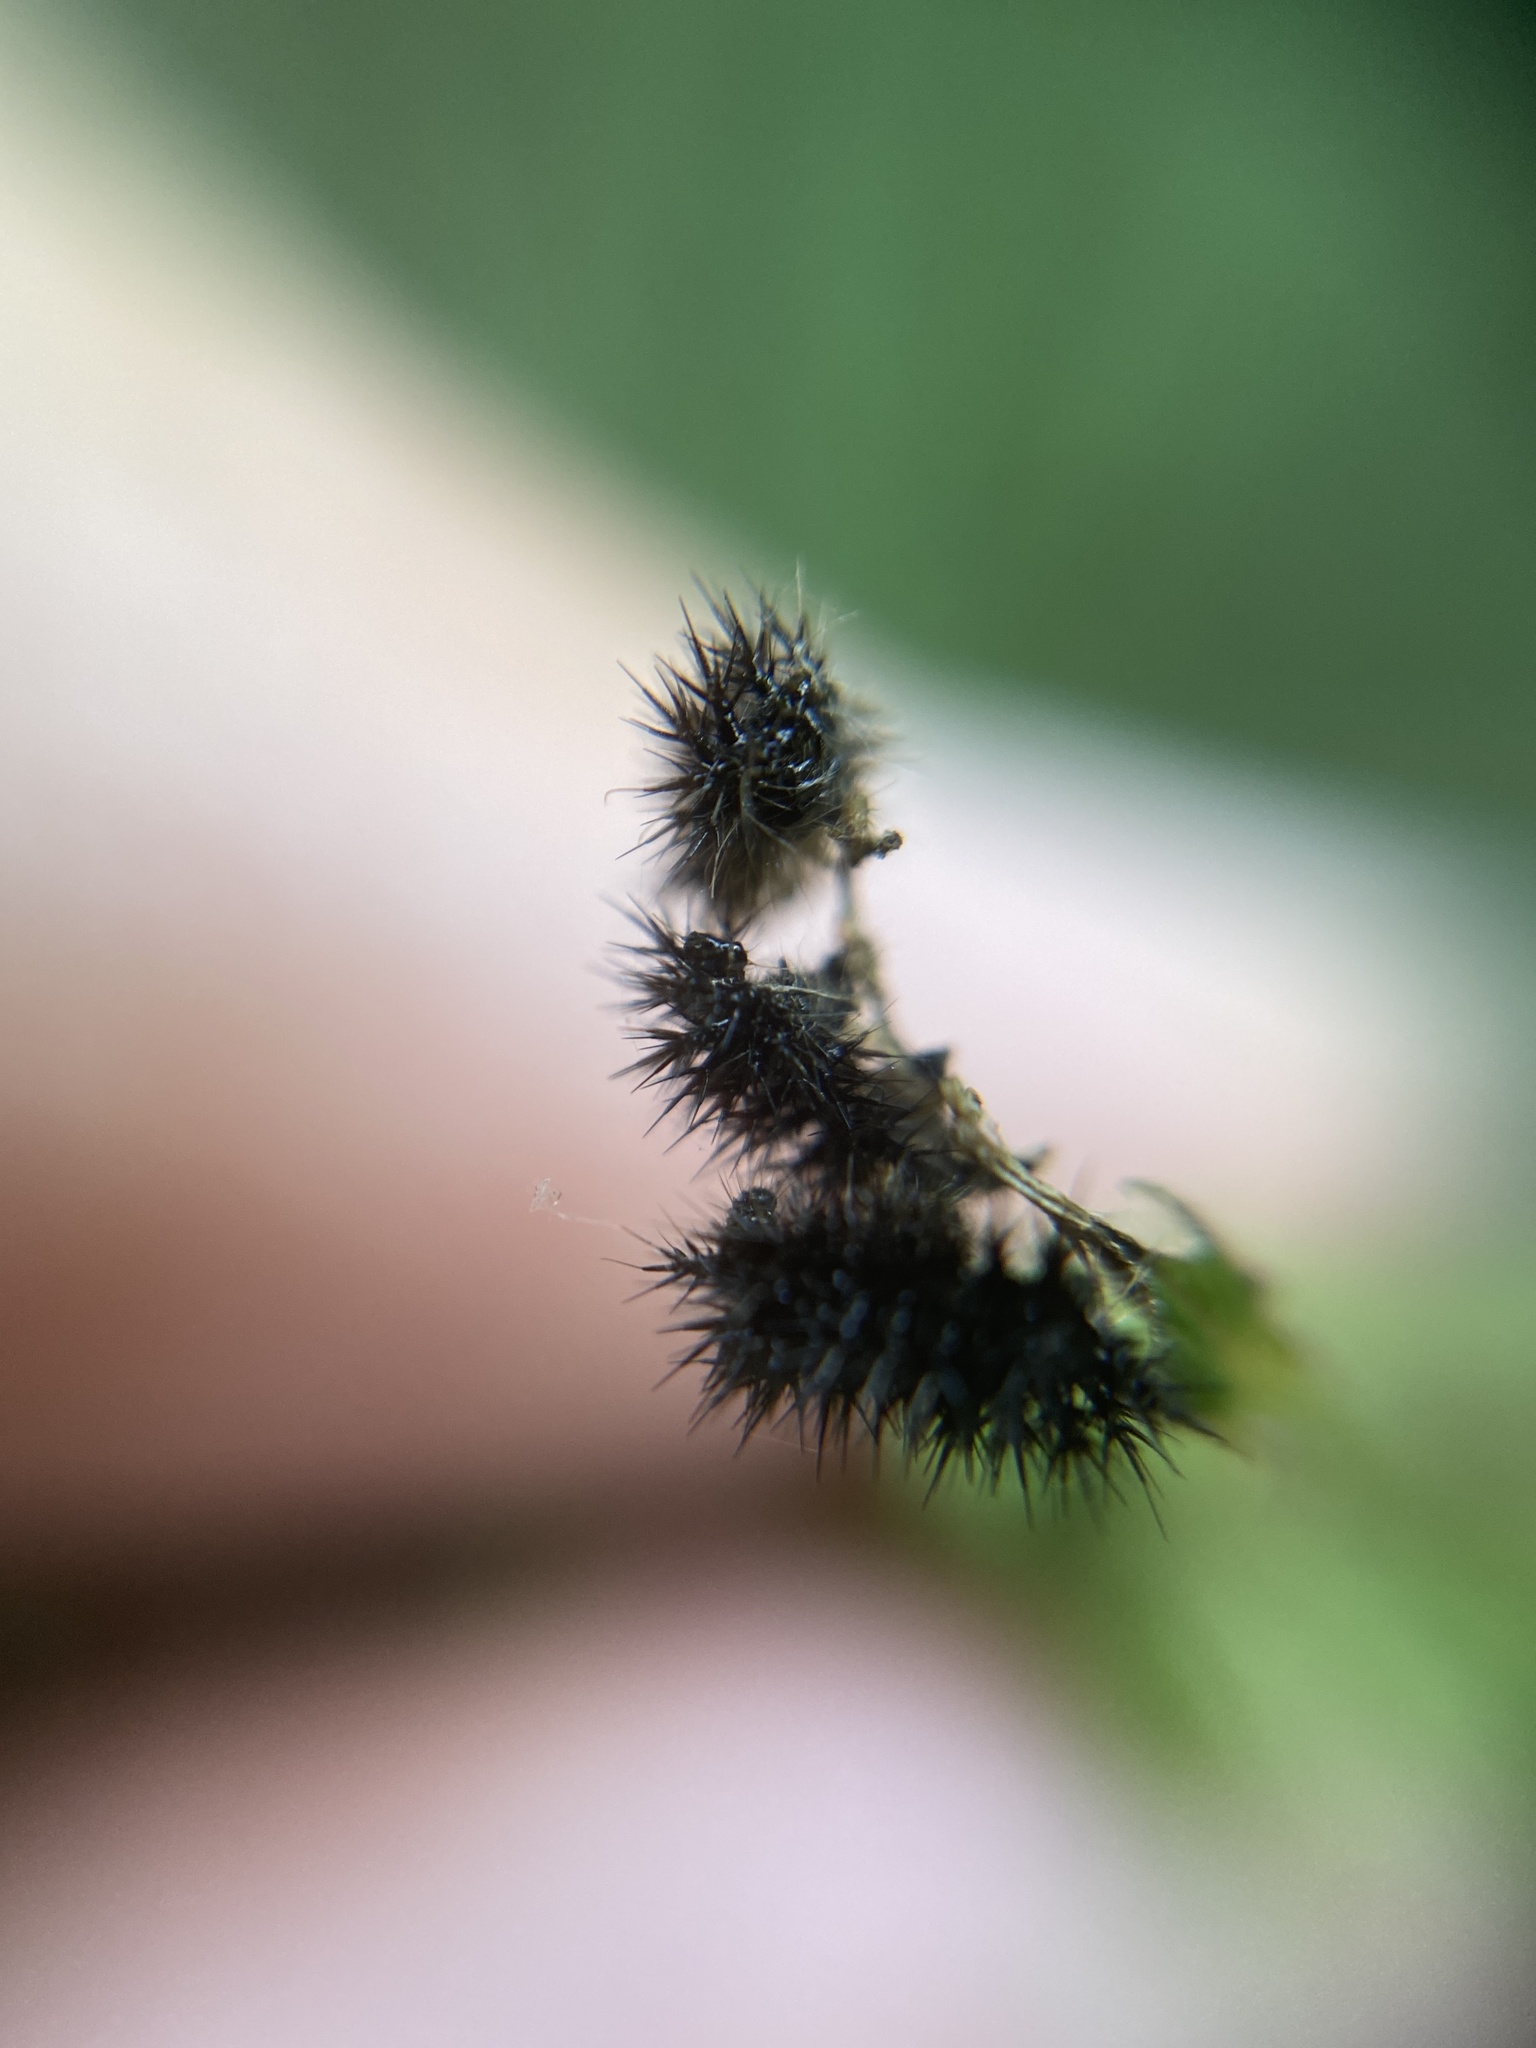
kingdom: Animalia
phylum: Arthropoda
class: Insecta
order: Lepidoptera
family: Nymphalidae
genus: Araschnia
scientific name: Araschnia levana
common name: Map butterfly
